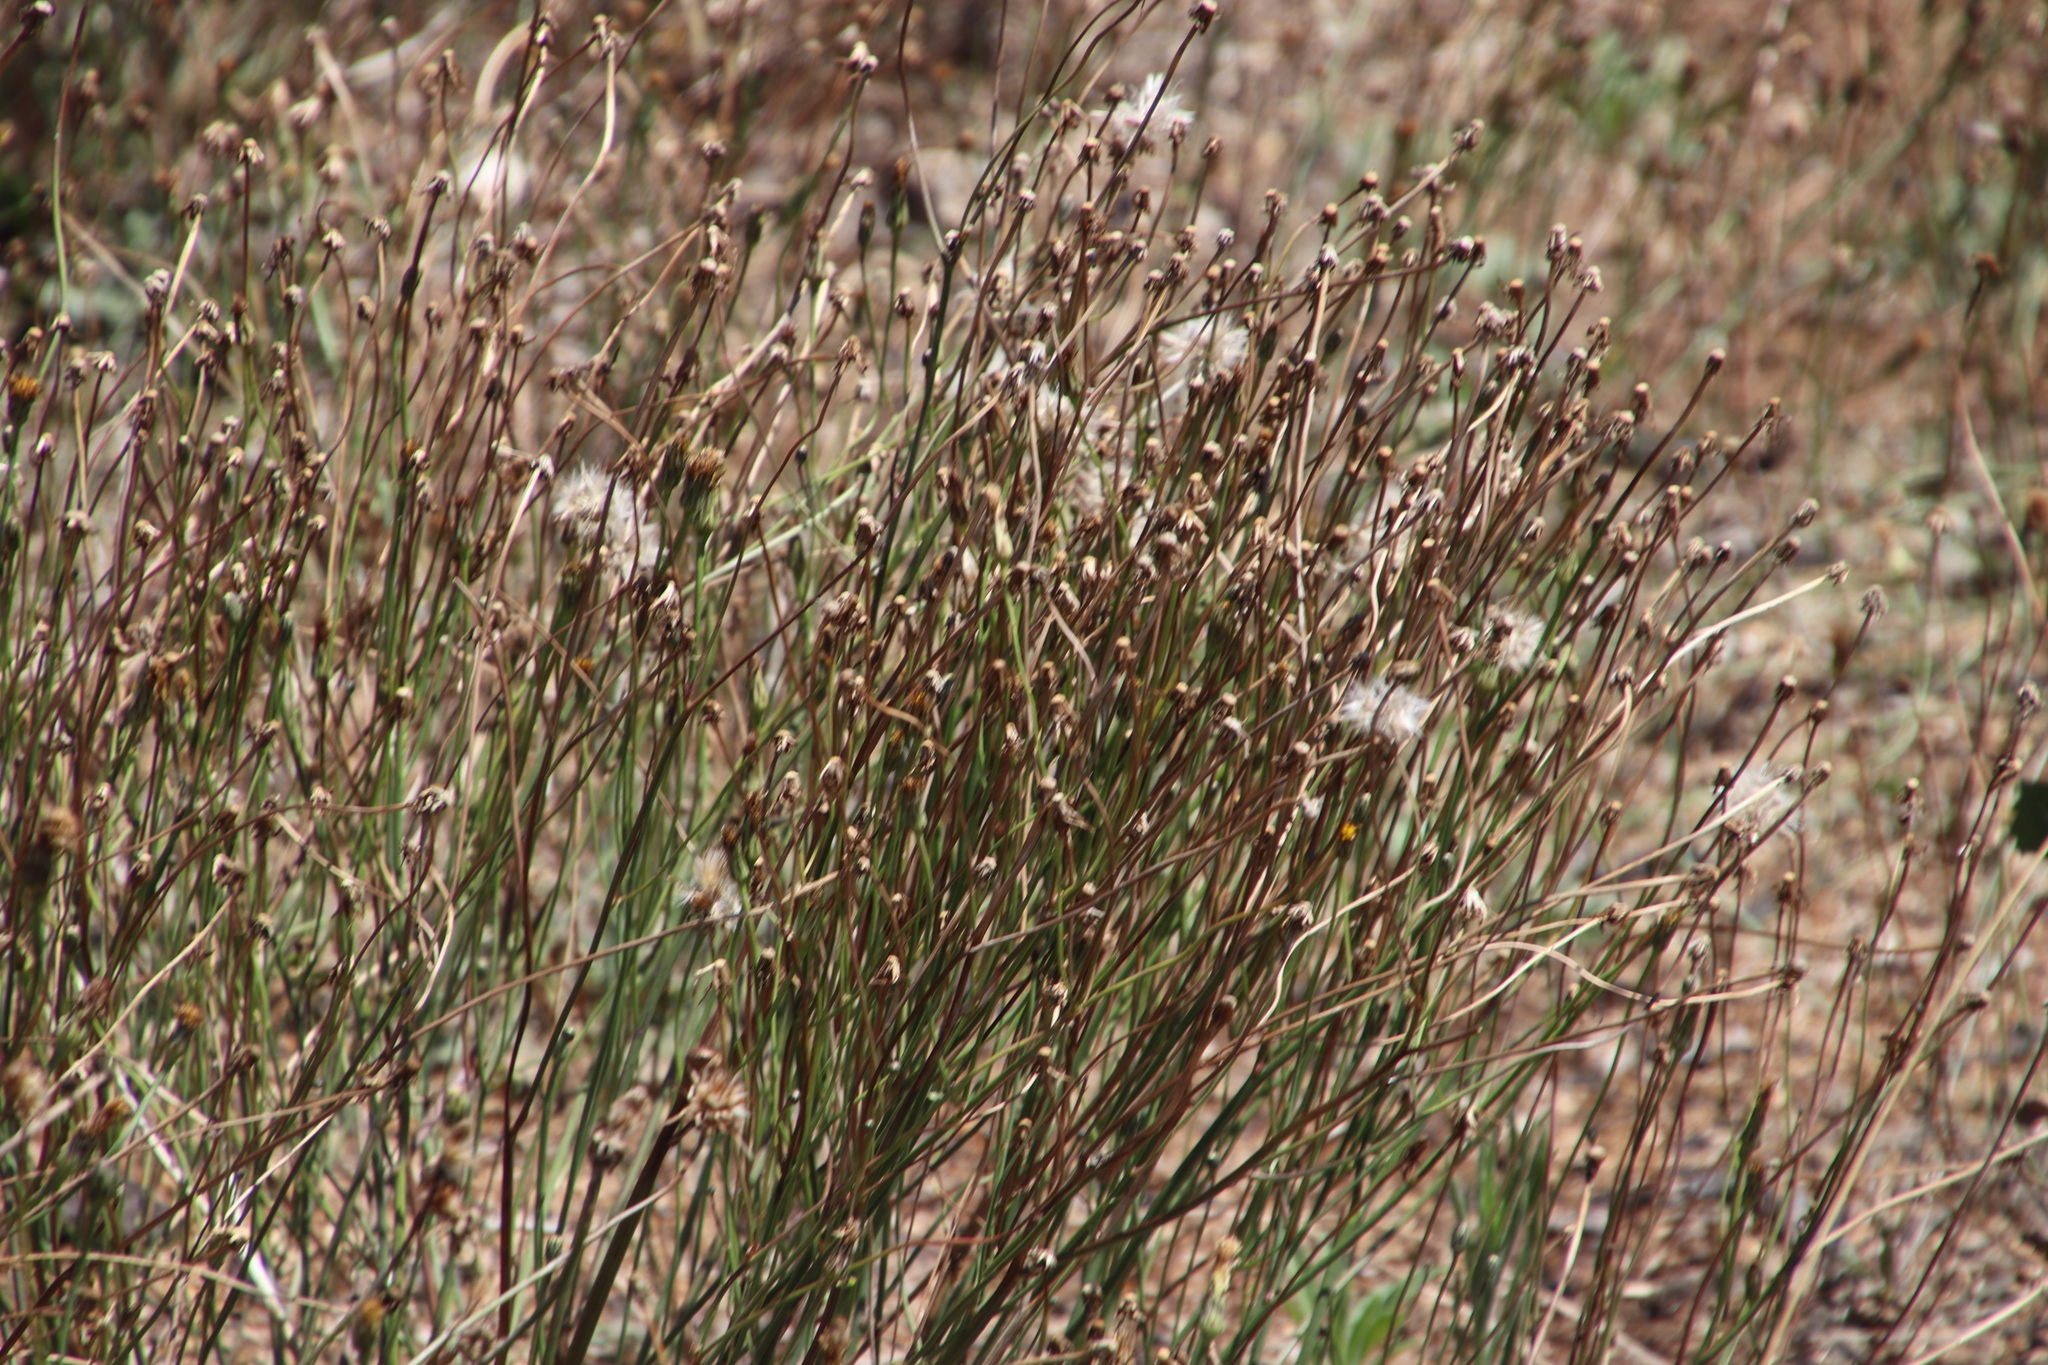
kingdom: Plantae
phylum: Tracheophyta
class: Magnoliopsida
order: Asterales
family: Asteraceae
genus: Hypochaeris
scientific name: Hypochaeris radicata
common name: Flatweed
